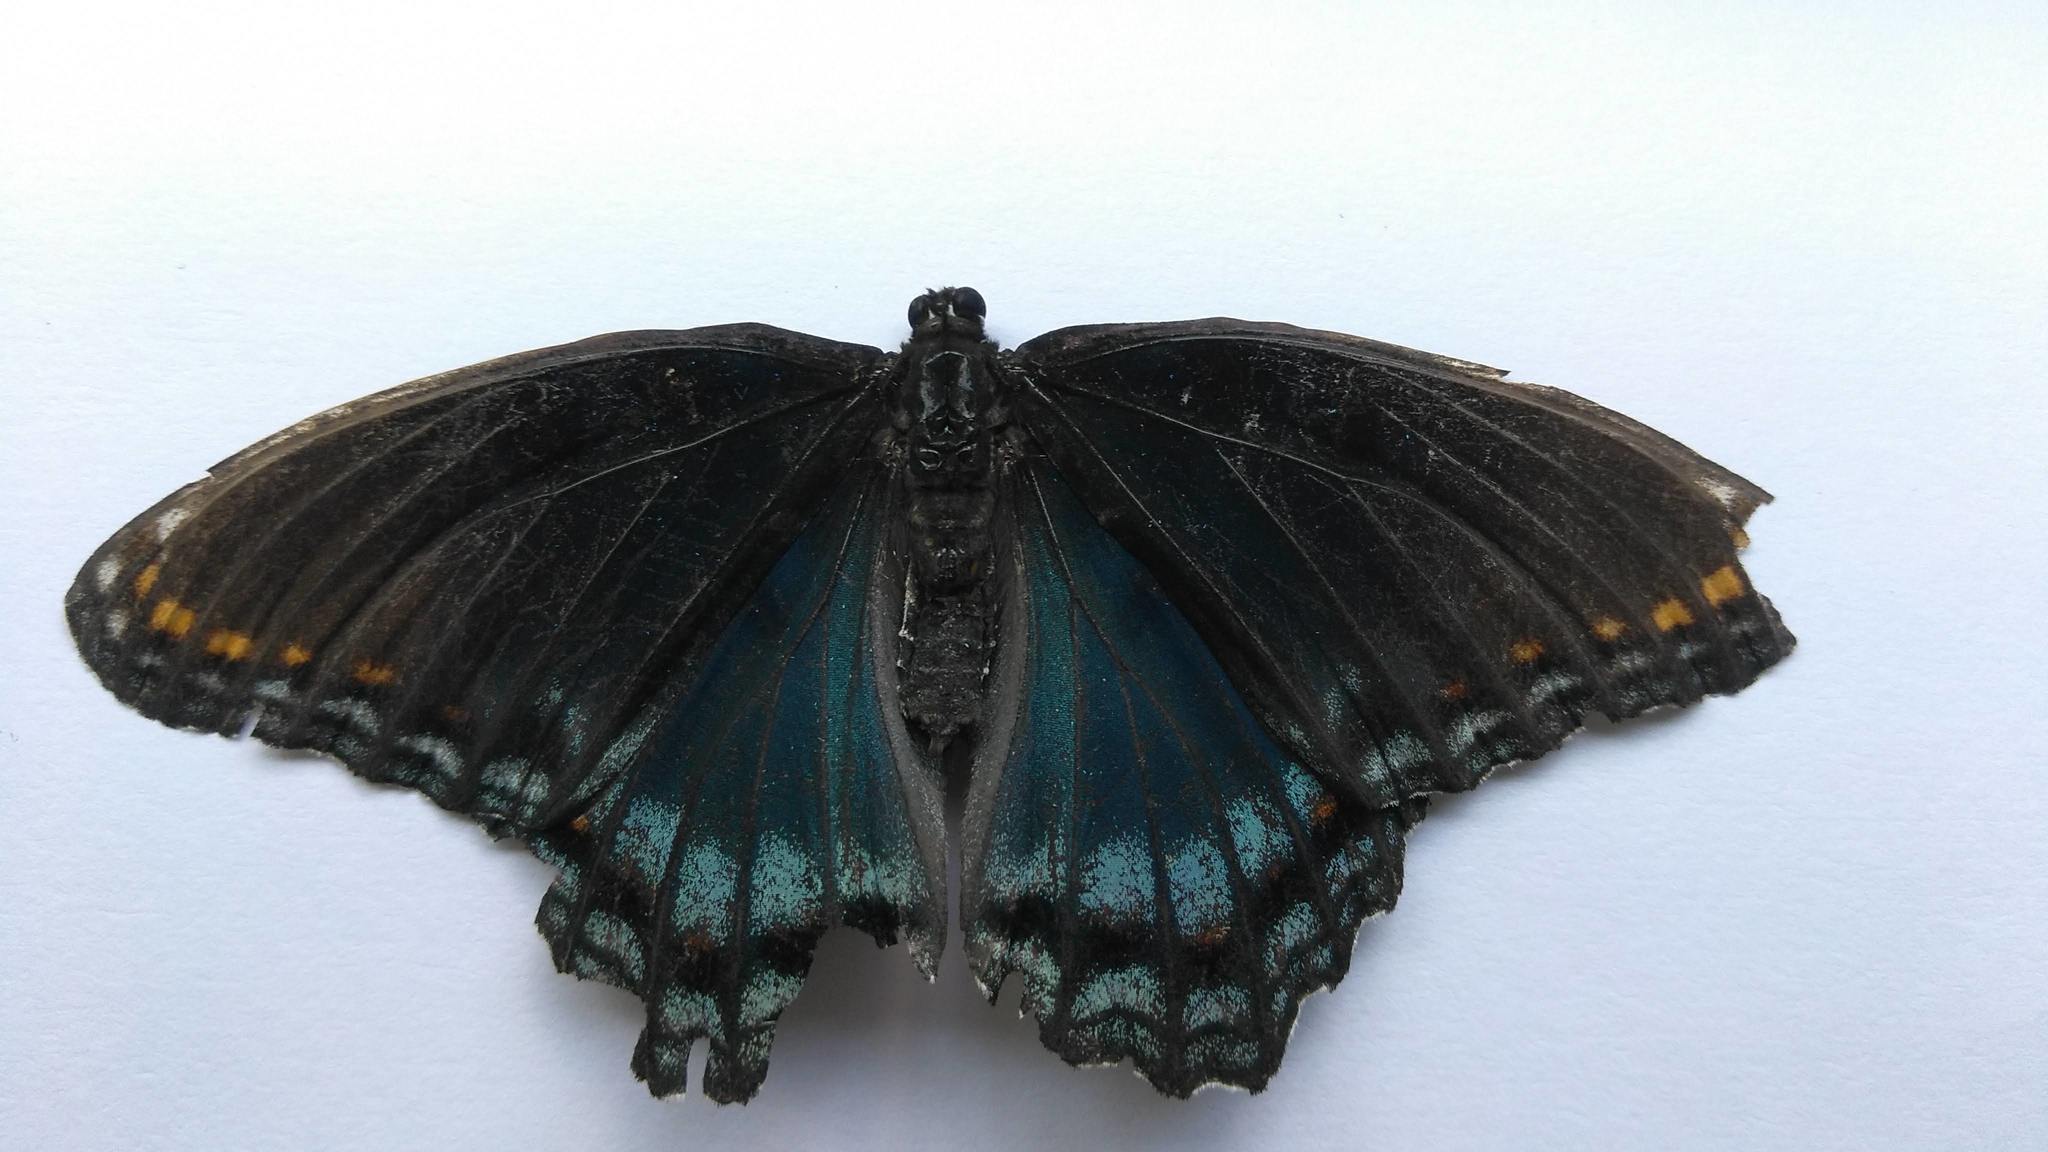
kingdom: Animalia
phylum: Arthropoda
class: Insecta
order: Lepidoptera
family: Nymphalidae
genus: Limenitis
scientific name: Limenitis arthemis
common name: Red-spotted admiral
